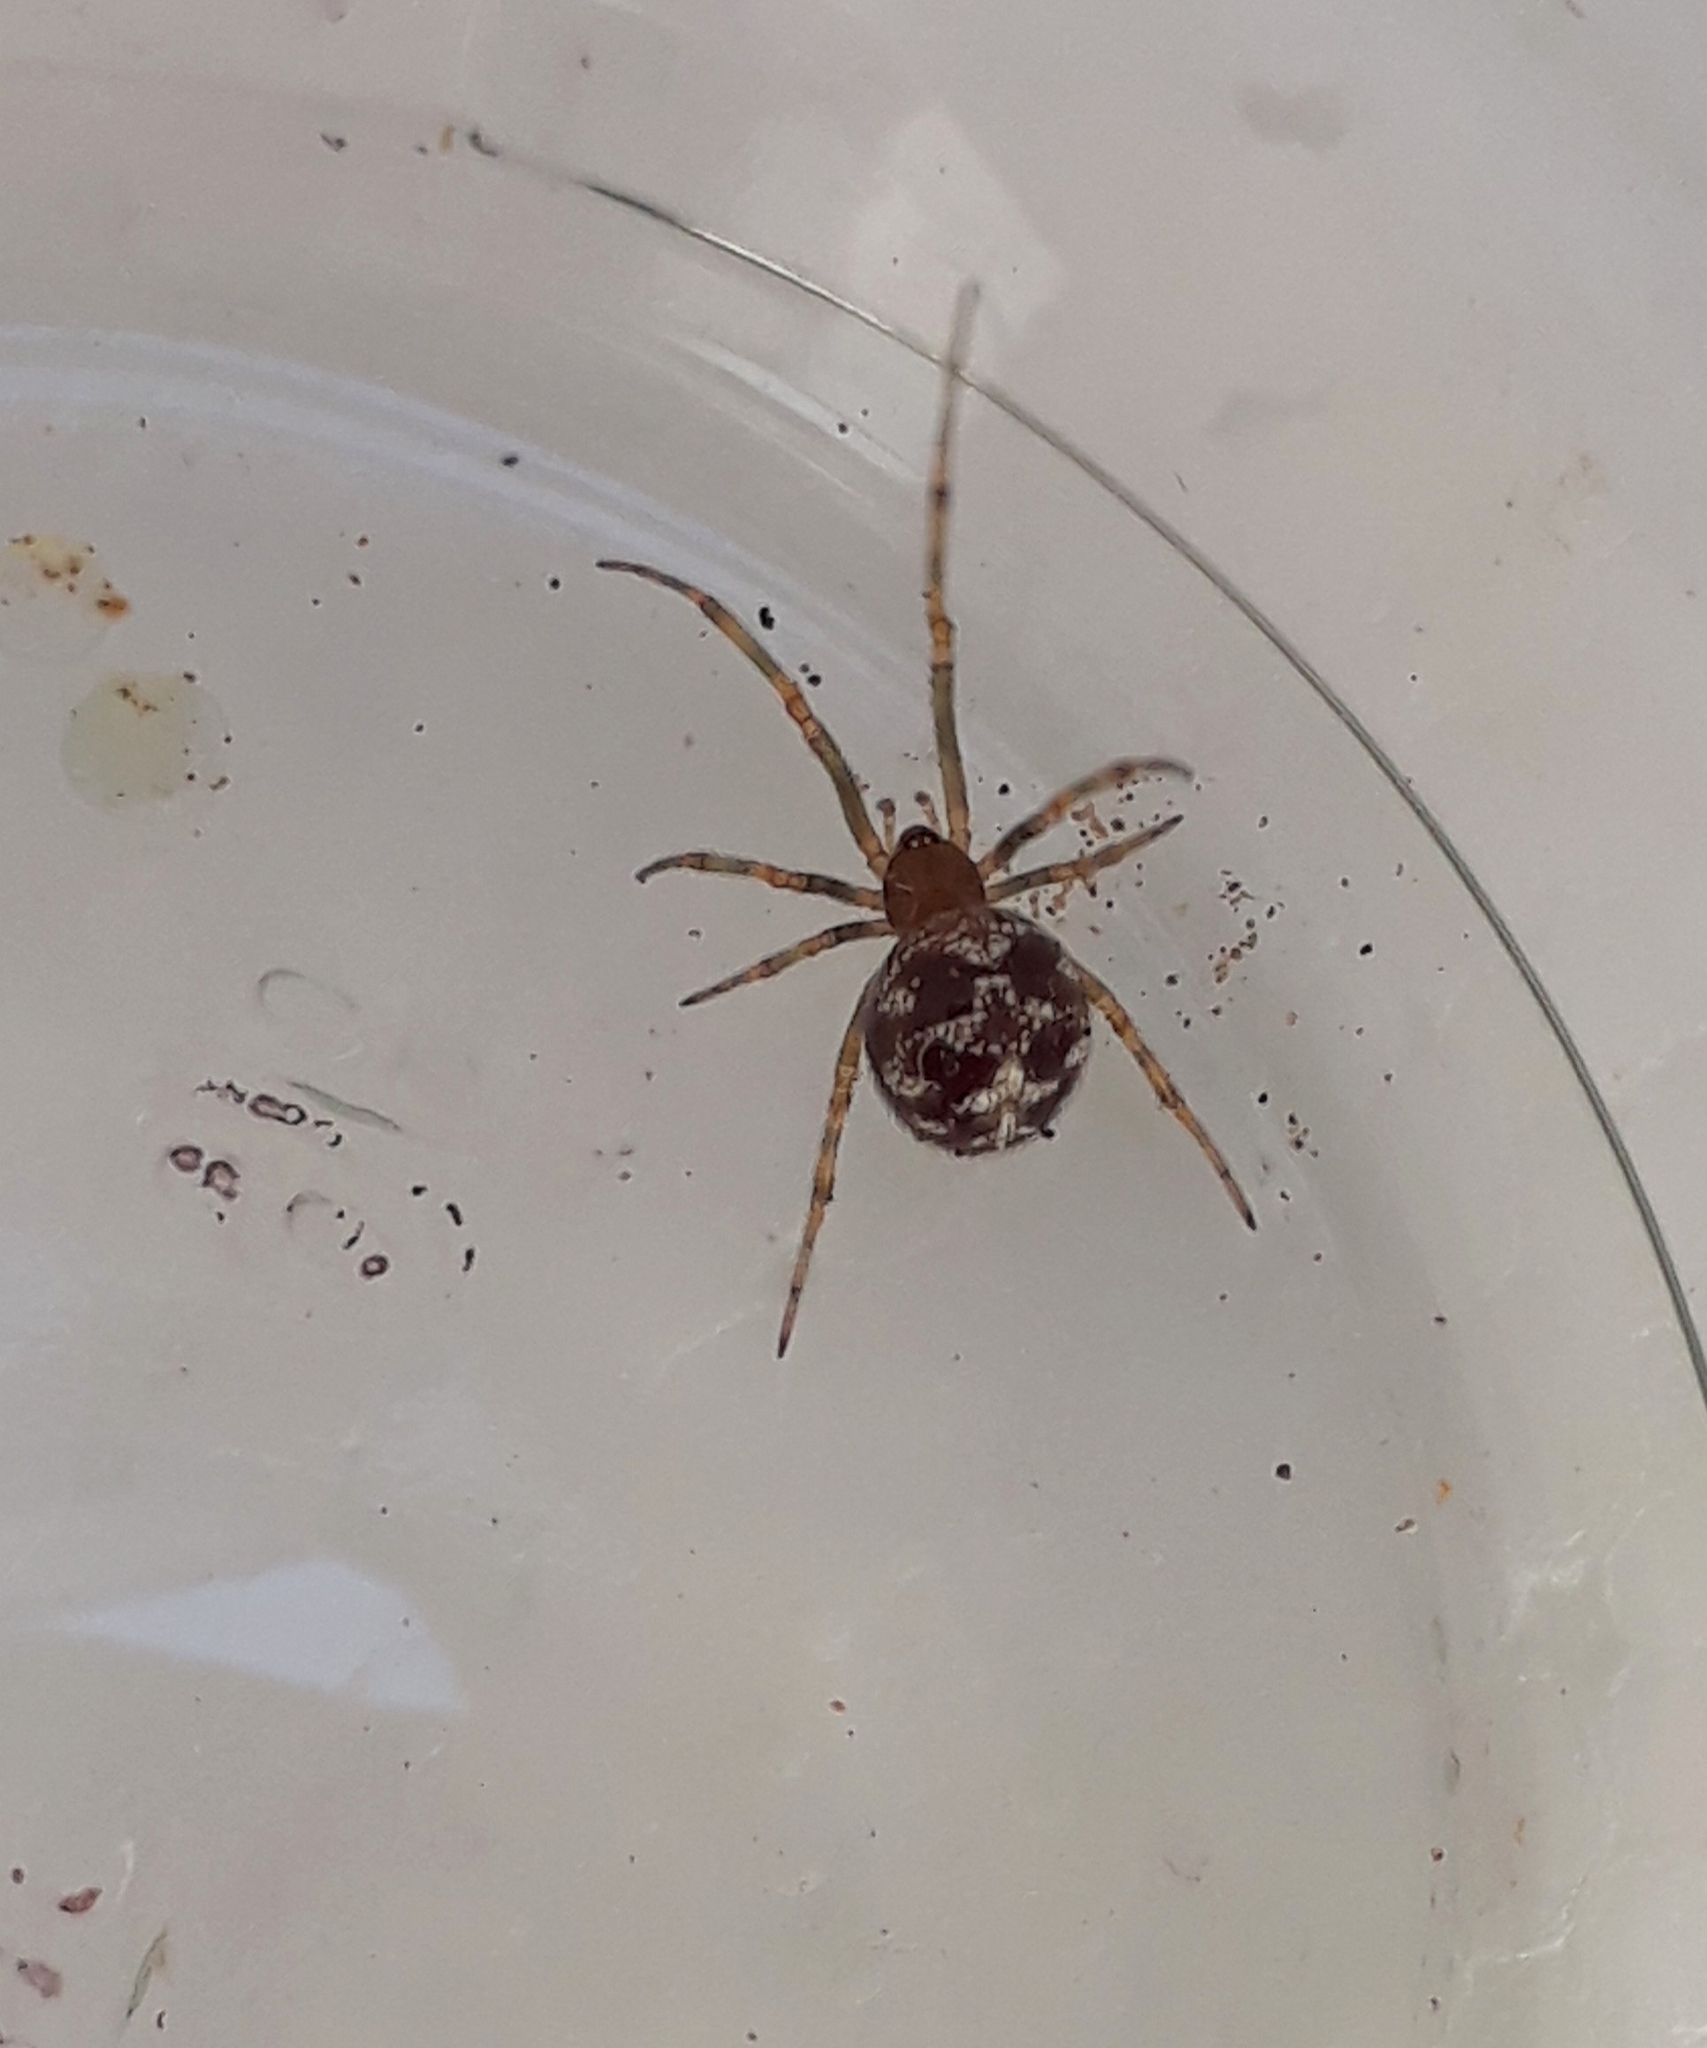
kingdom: Animalia
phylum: Arthropoda
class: Arachnida
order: Araneae
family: Theridiidae
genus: Steatoda
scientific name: Steatoda triangulosa
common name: Triangulate bud spider
